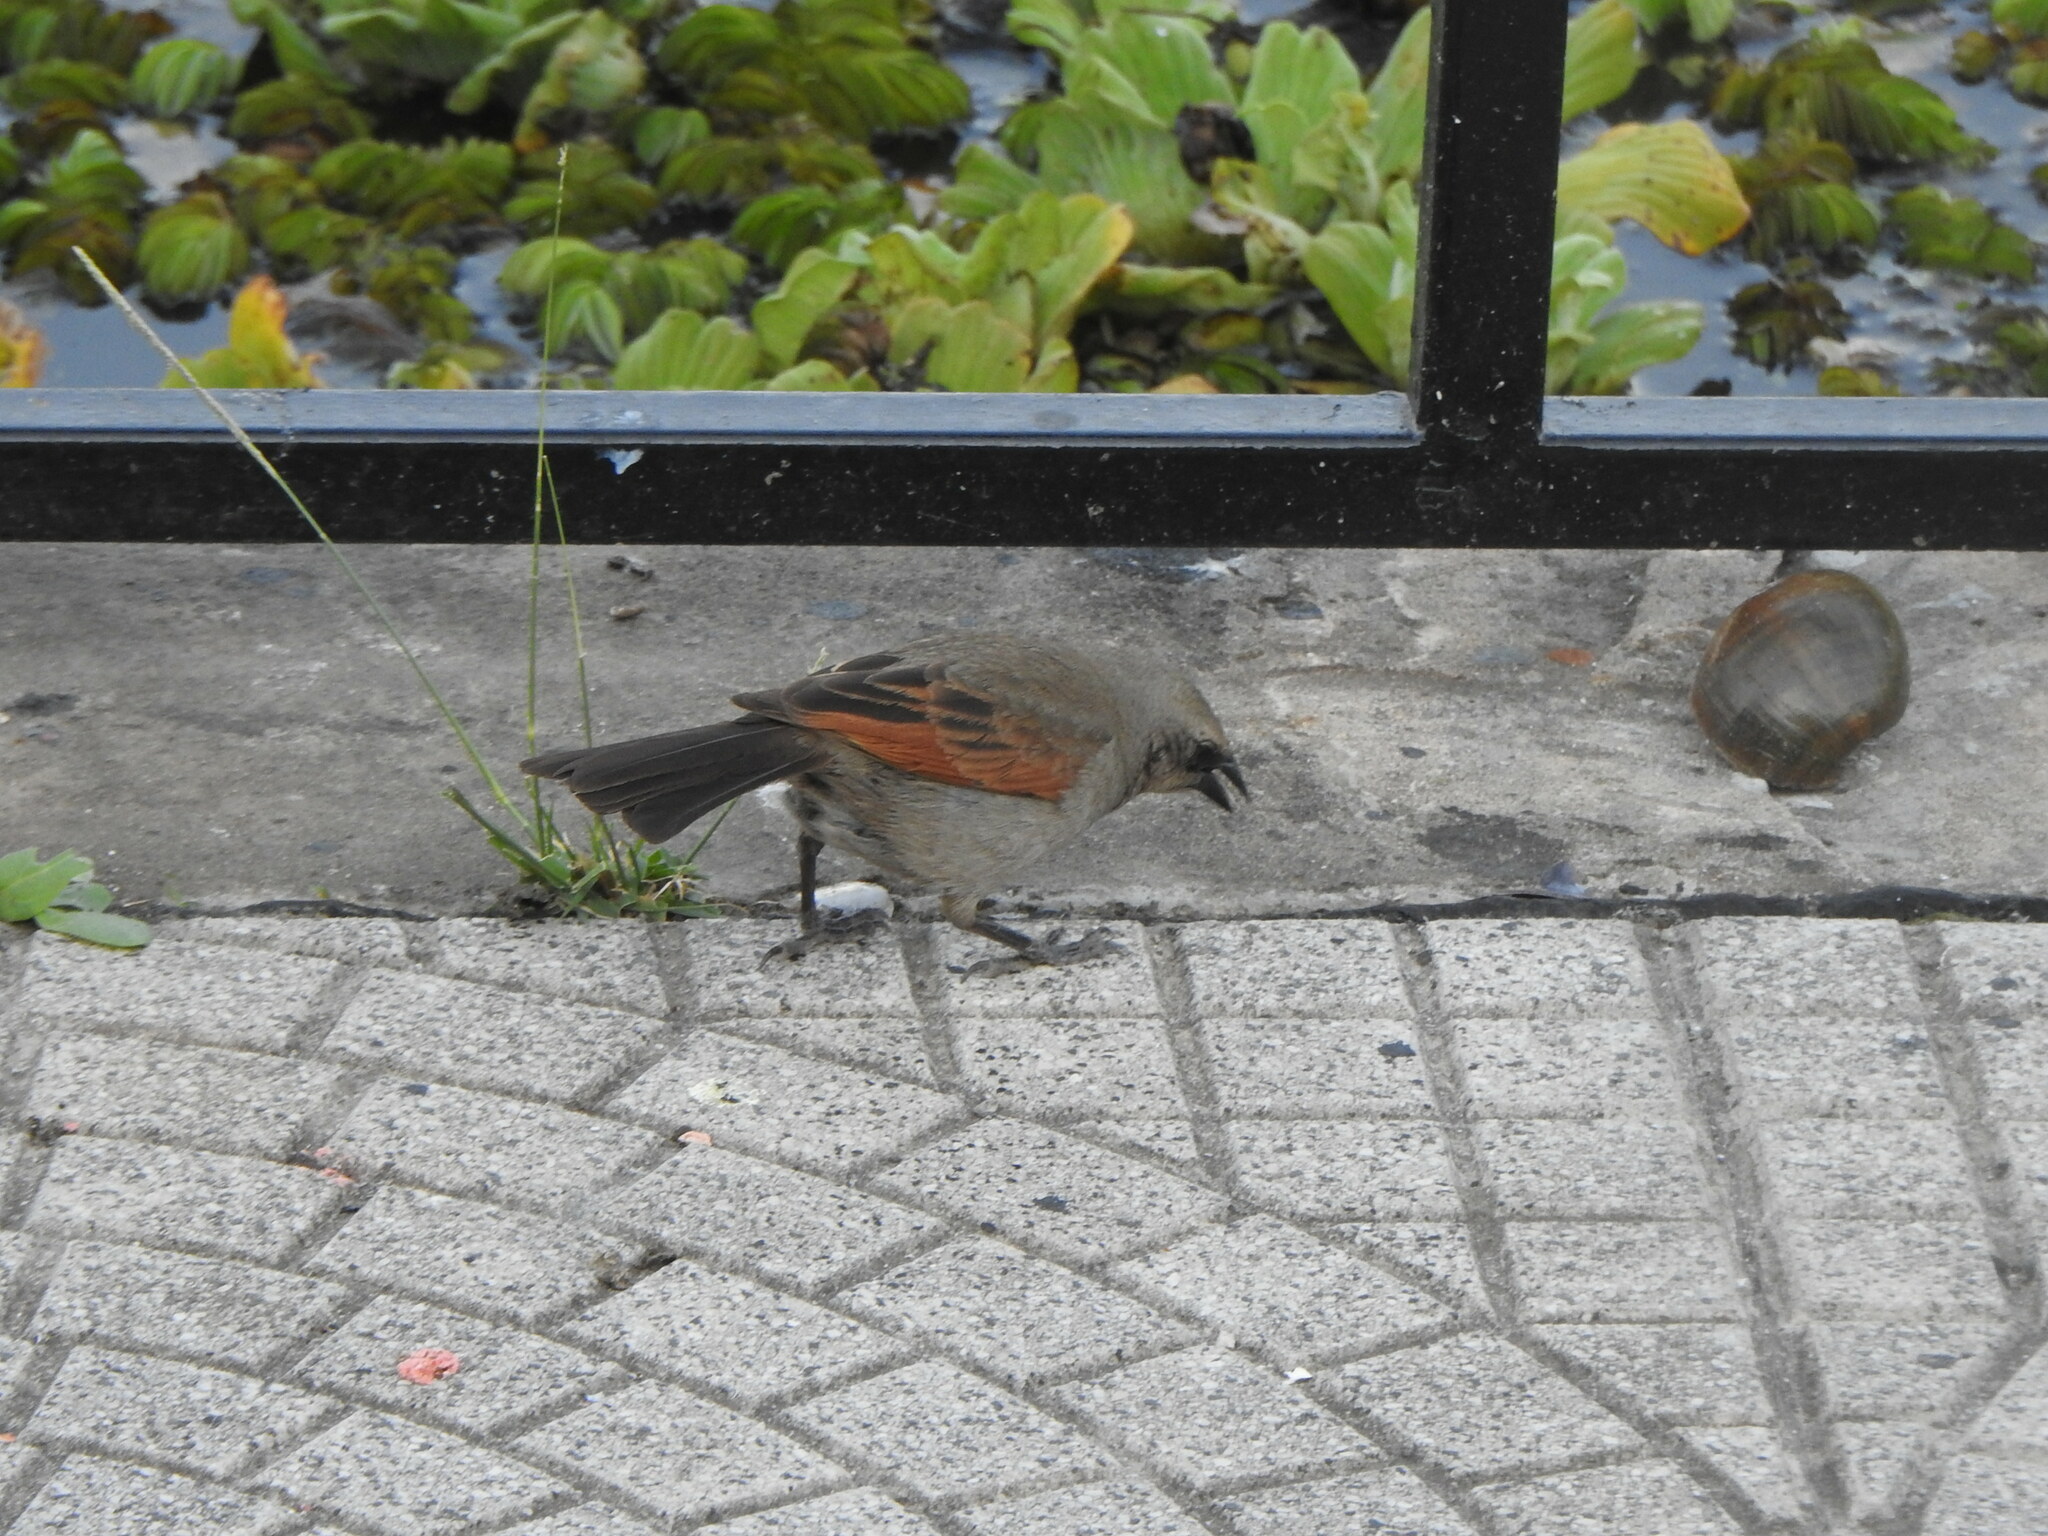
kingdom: Animalia
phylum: Chordata
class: Aves
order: Passeriformes
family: Icteridae
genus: Agelaioides
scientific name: Agelaioides badius
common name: Baywing
